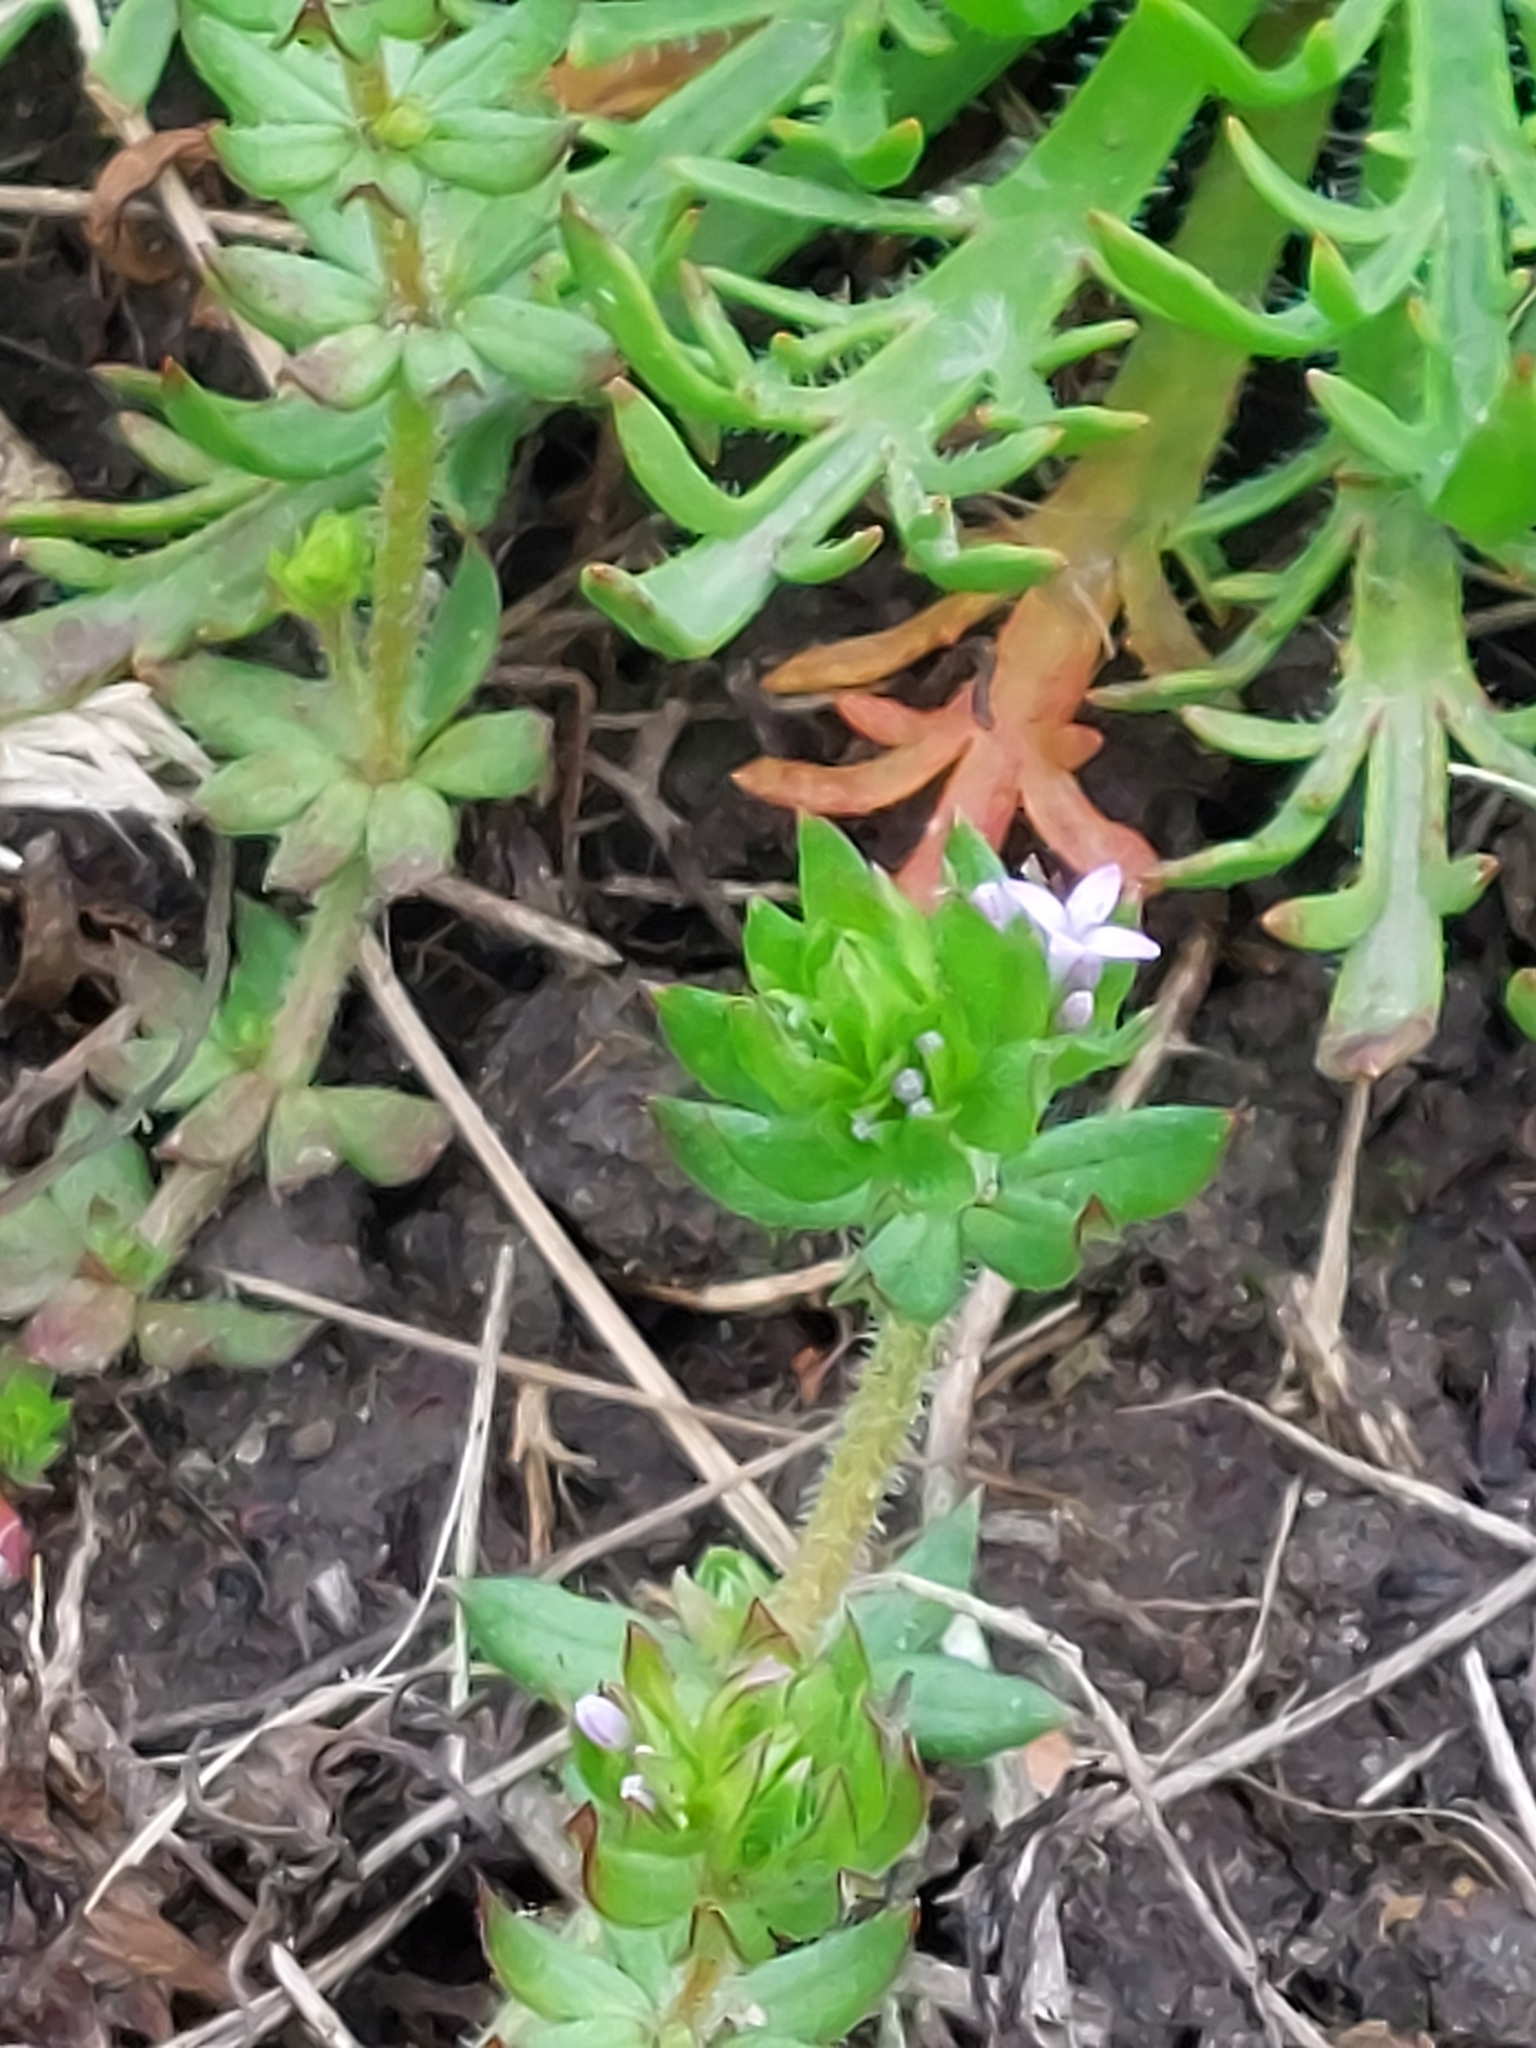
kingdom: Plantae
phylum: Tracheophyta
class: Magnoliopsida
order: Gentianales
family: Rubiaceae
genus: Sherardia
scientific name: Sherardia arvensis
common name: Field madder
